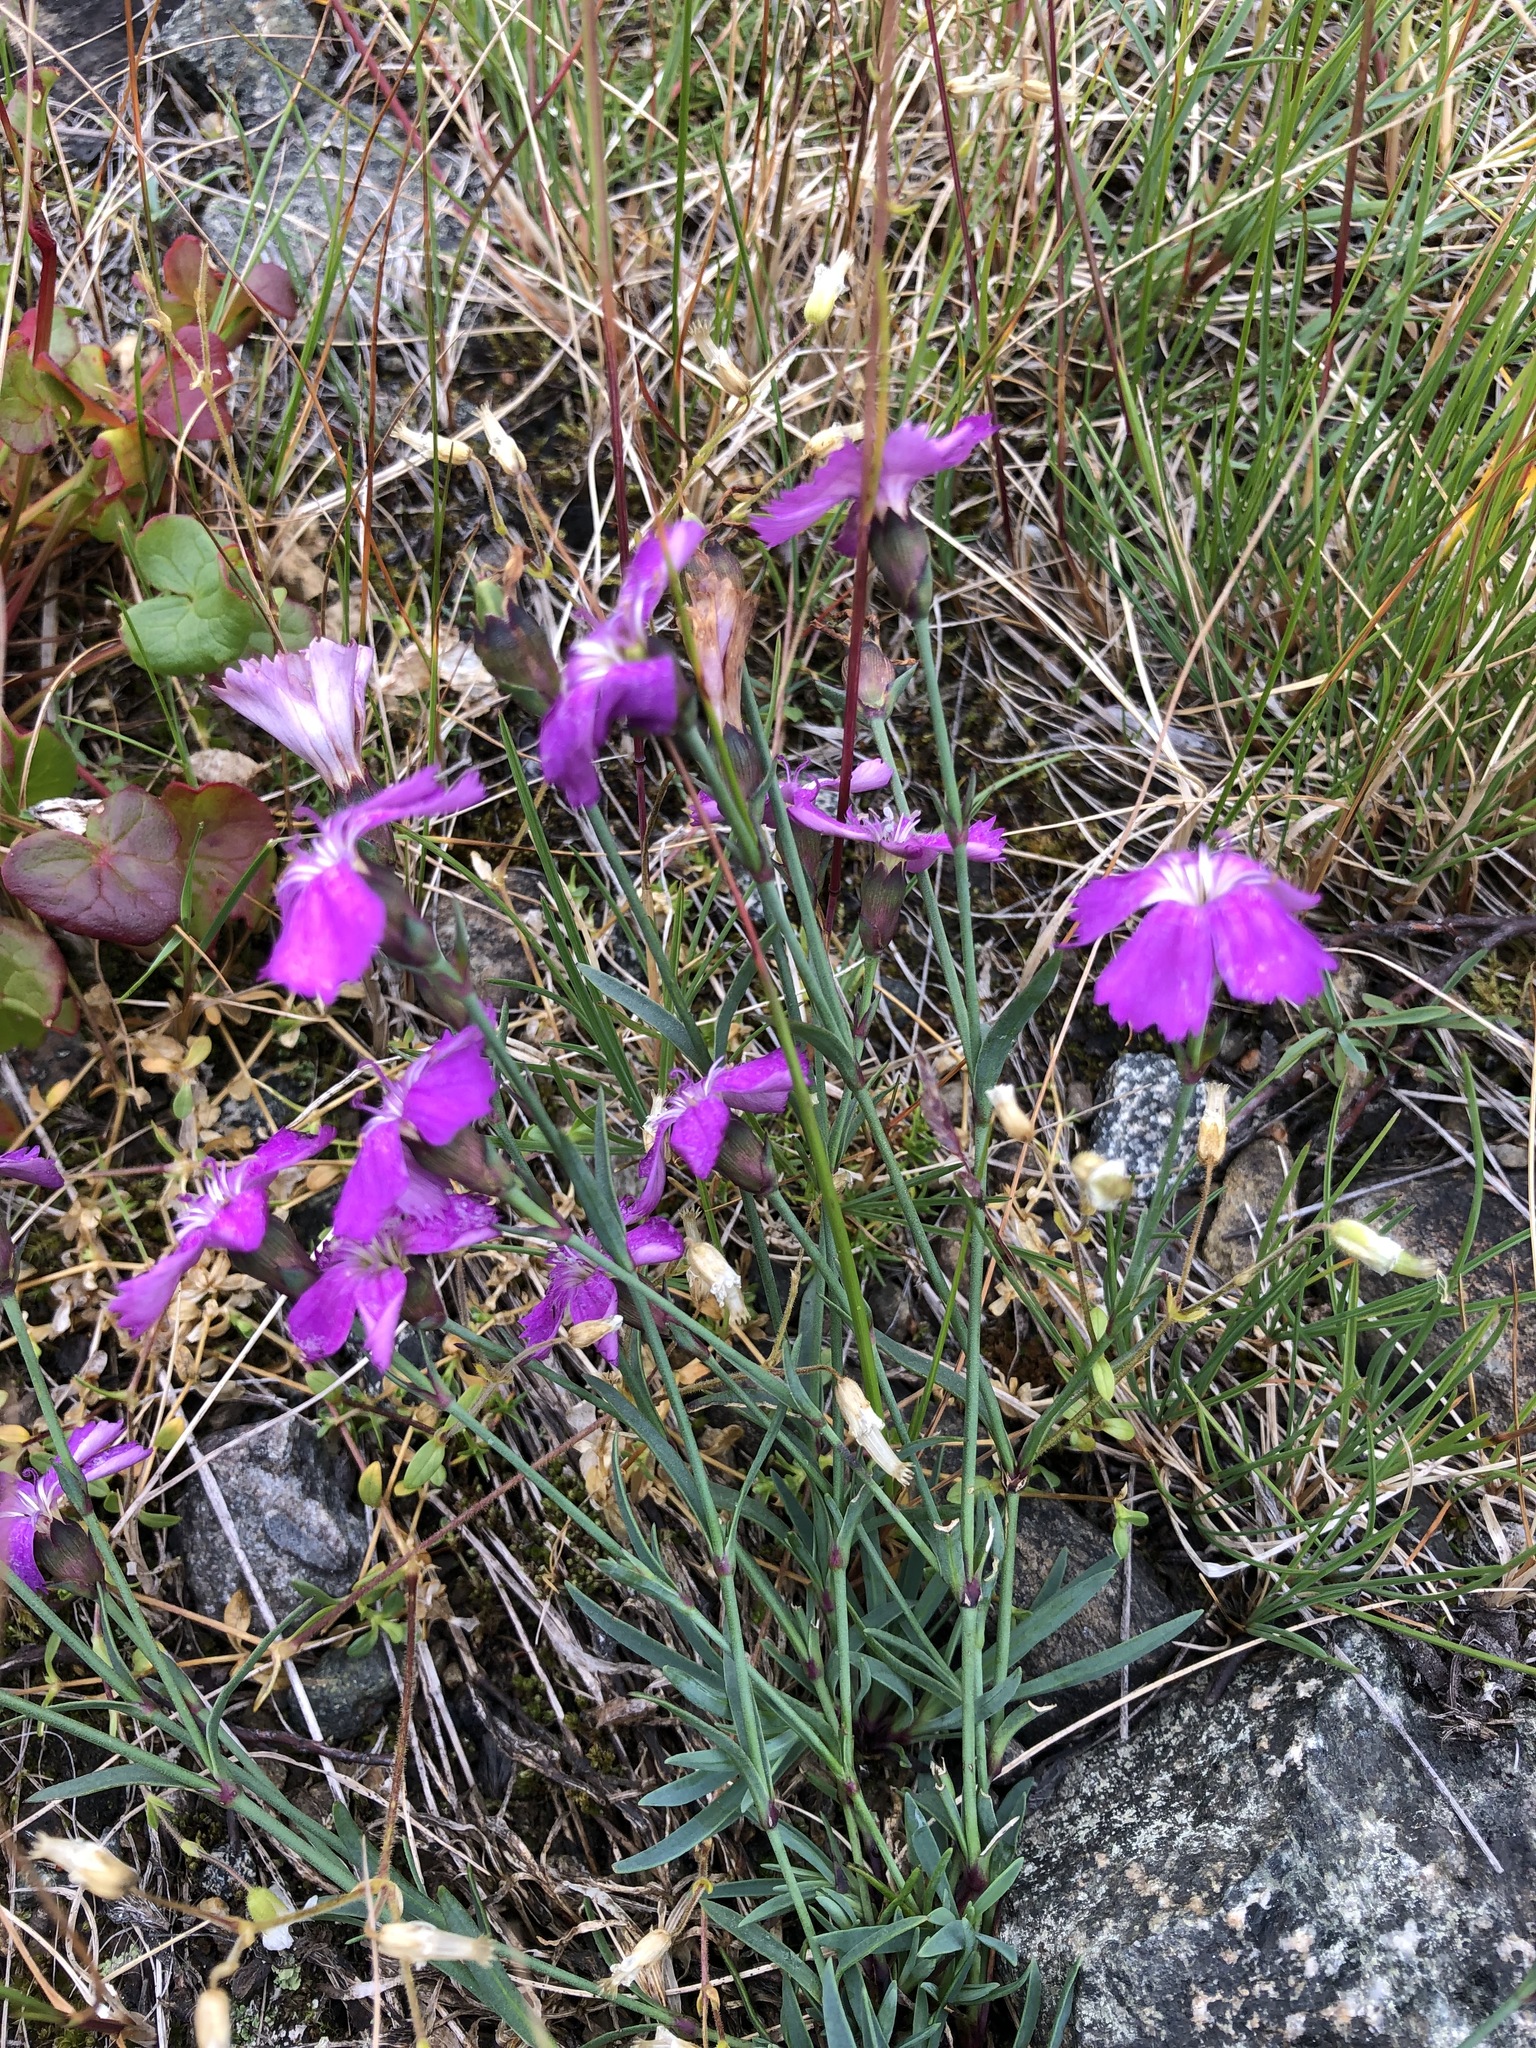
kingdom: Plantae
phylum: Tracheophyta
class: Magnoliopsida
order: Caryophyllales
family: Caryophyllaceae
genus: Dianthus
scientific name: Dianthus repens
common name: Northern pink
